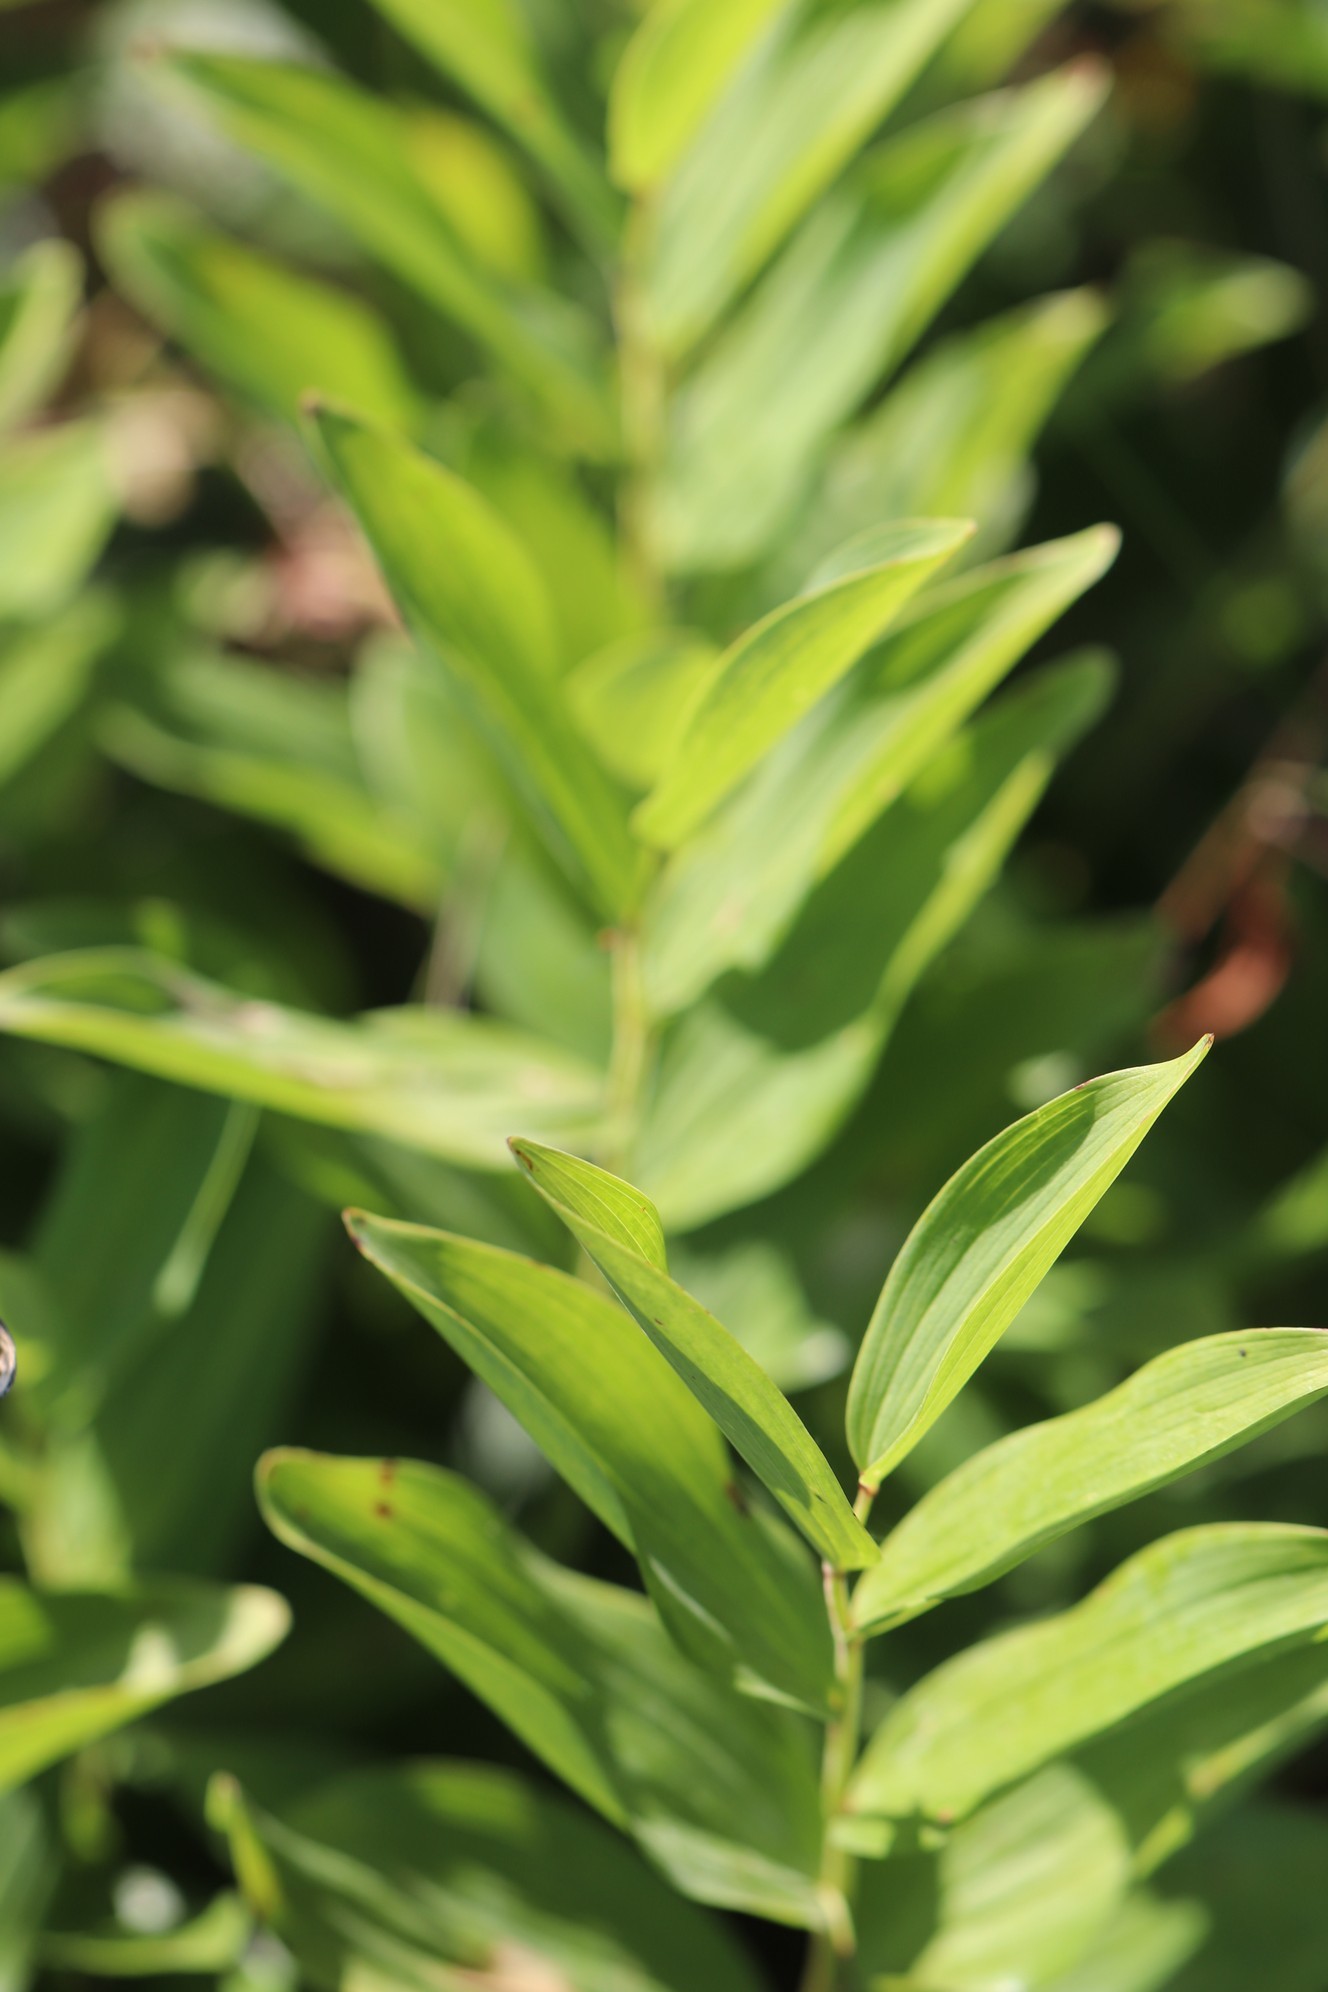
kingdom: Plantae
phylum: Tracheophyta
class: Liliopsida
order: Asparagales
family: Asparagaceae
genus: Polygonatum
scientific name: Polygonatum odoratum
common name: Angular solomon's-seal
